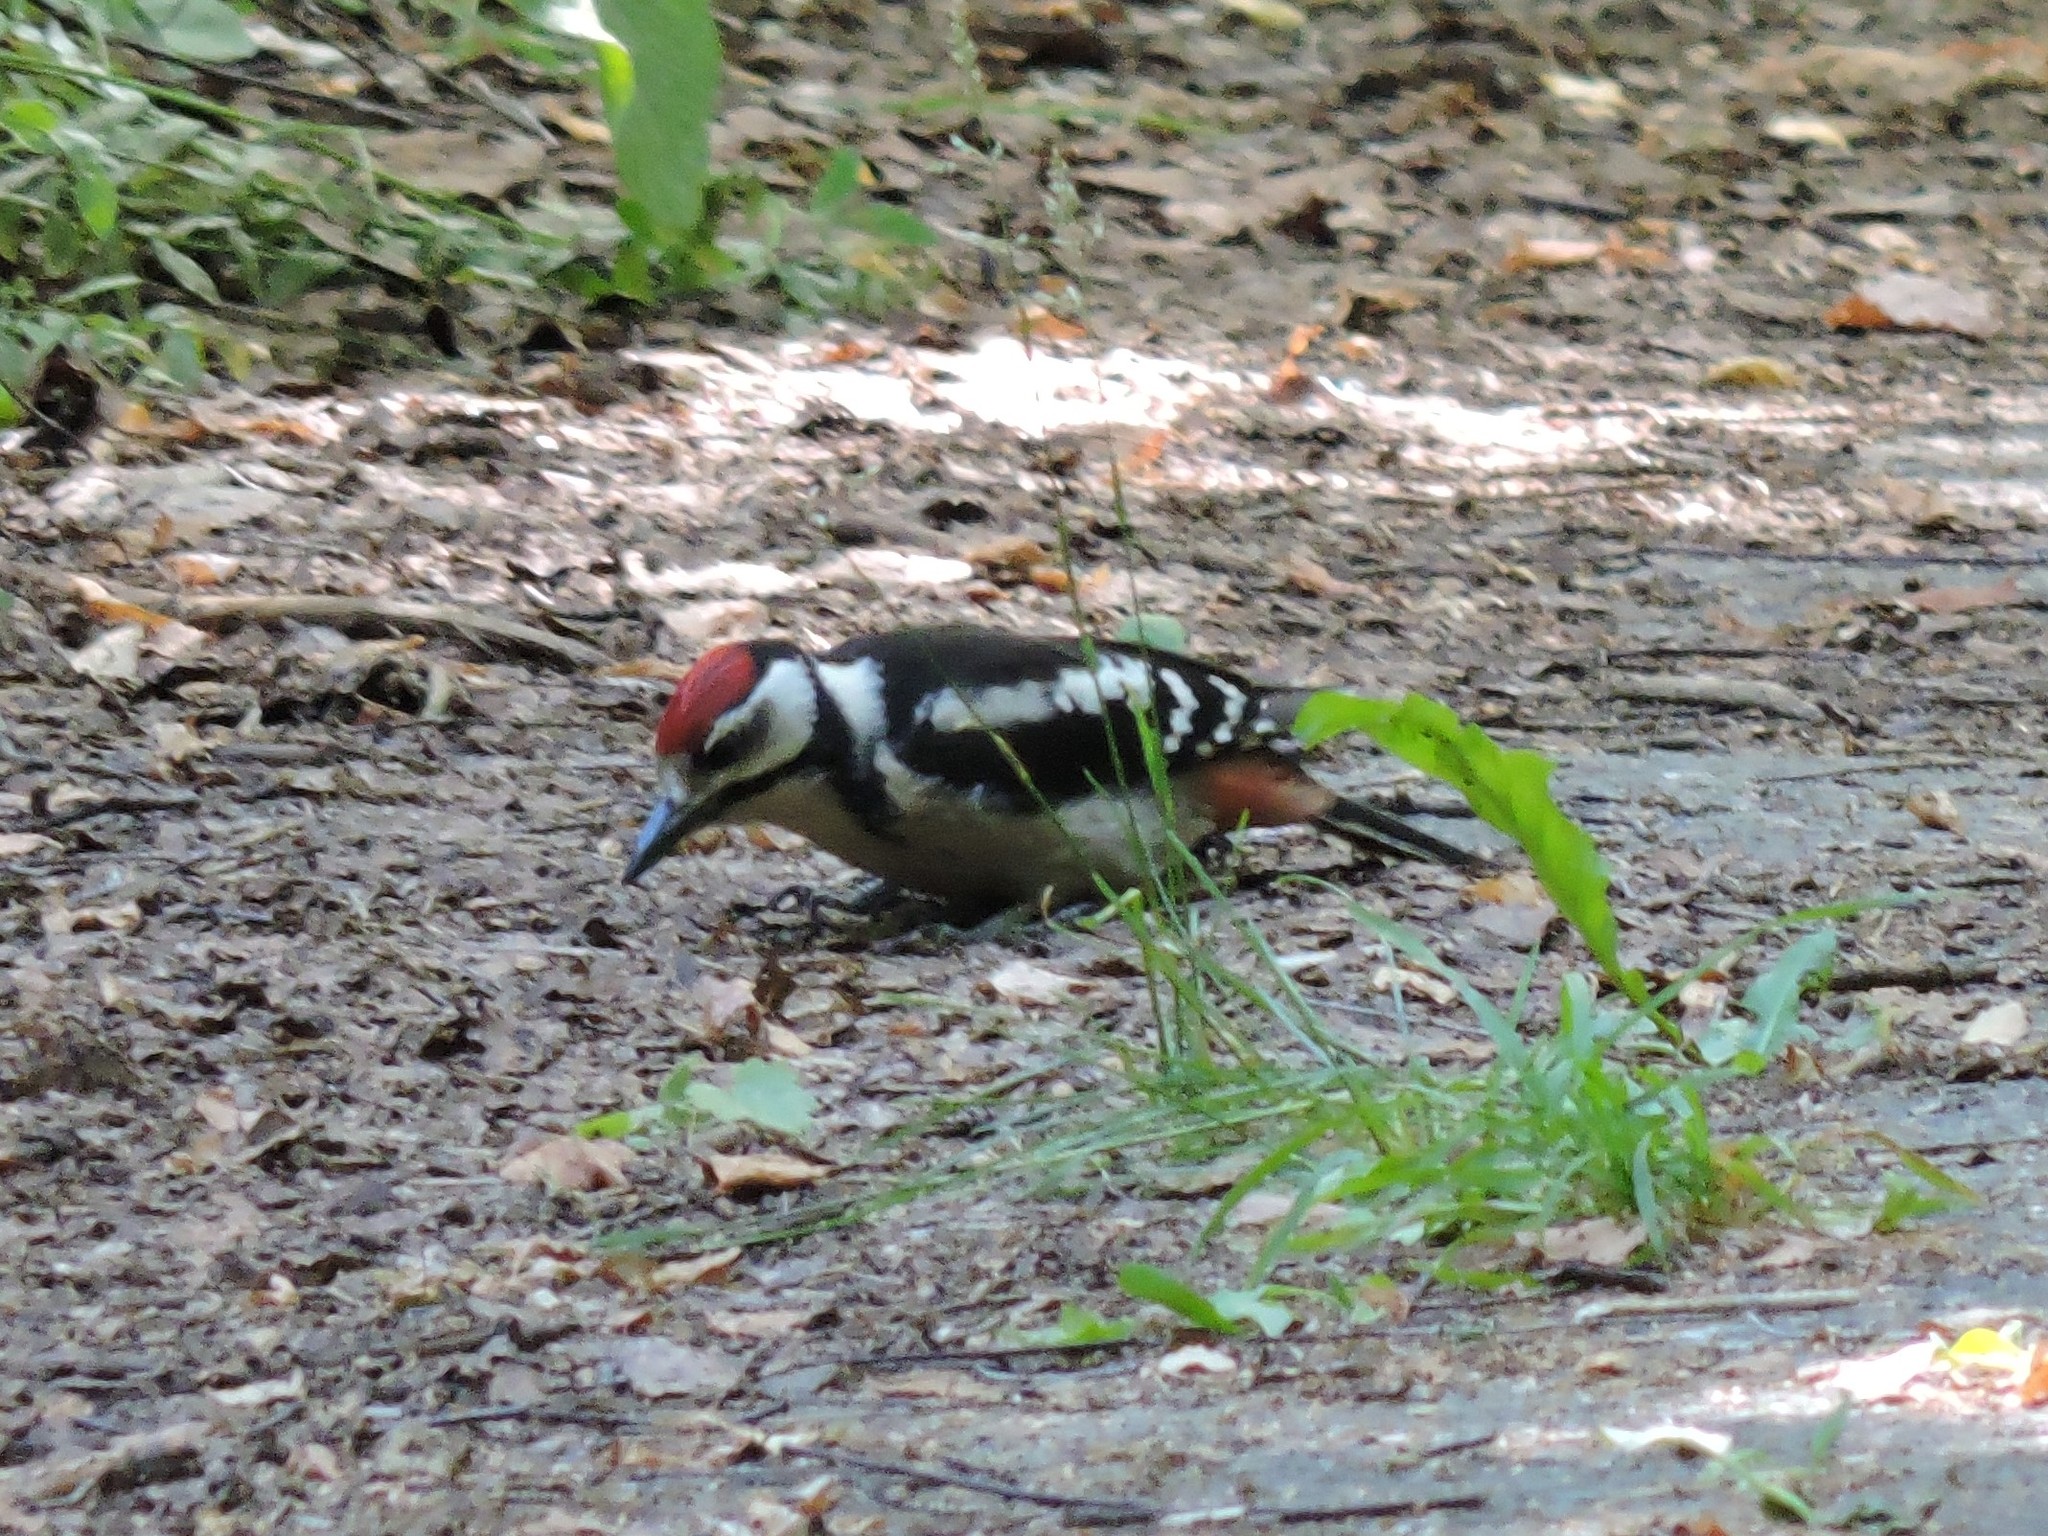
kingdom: Animalia
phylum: Chordata
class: Aves
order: Piciformes
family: Picidae
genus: Dendrocopos
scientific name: Dendrocopos major
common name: Great spotted woodpecker
